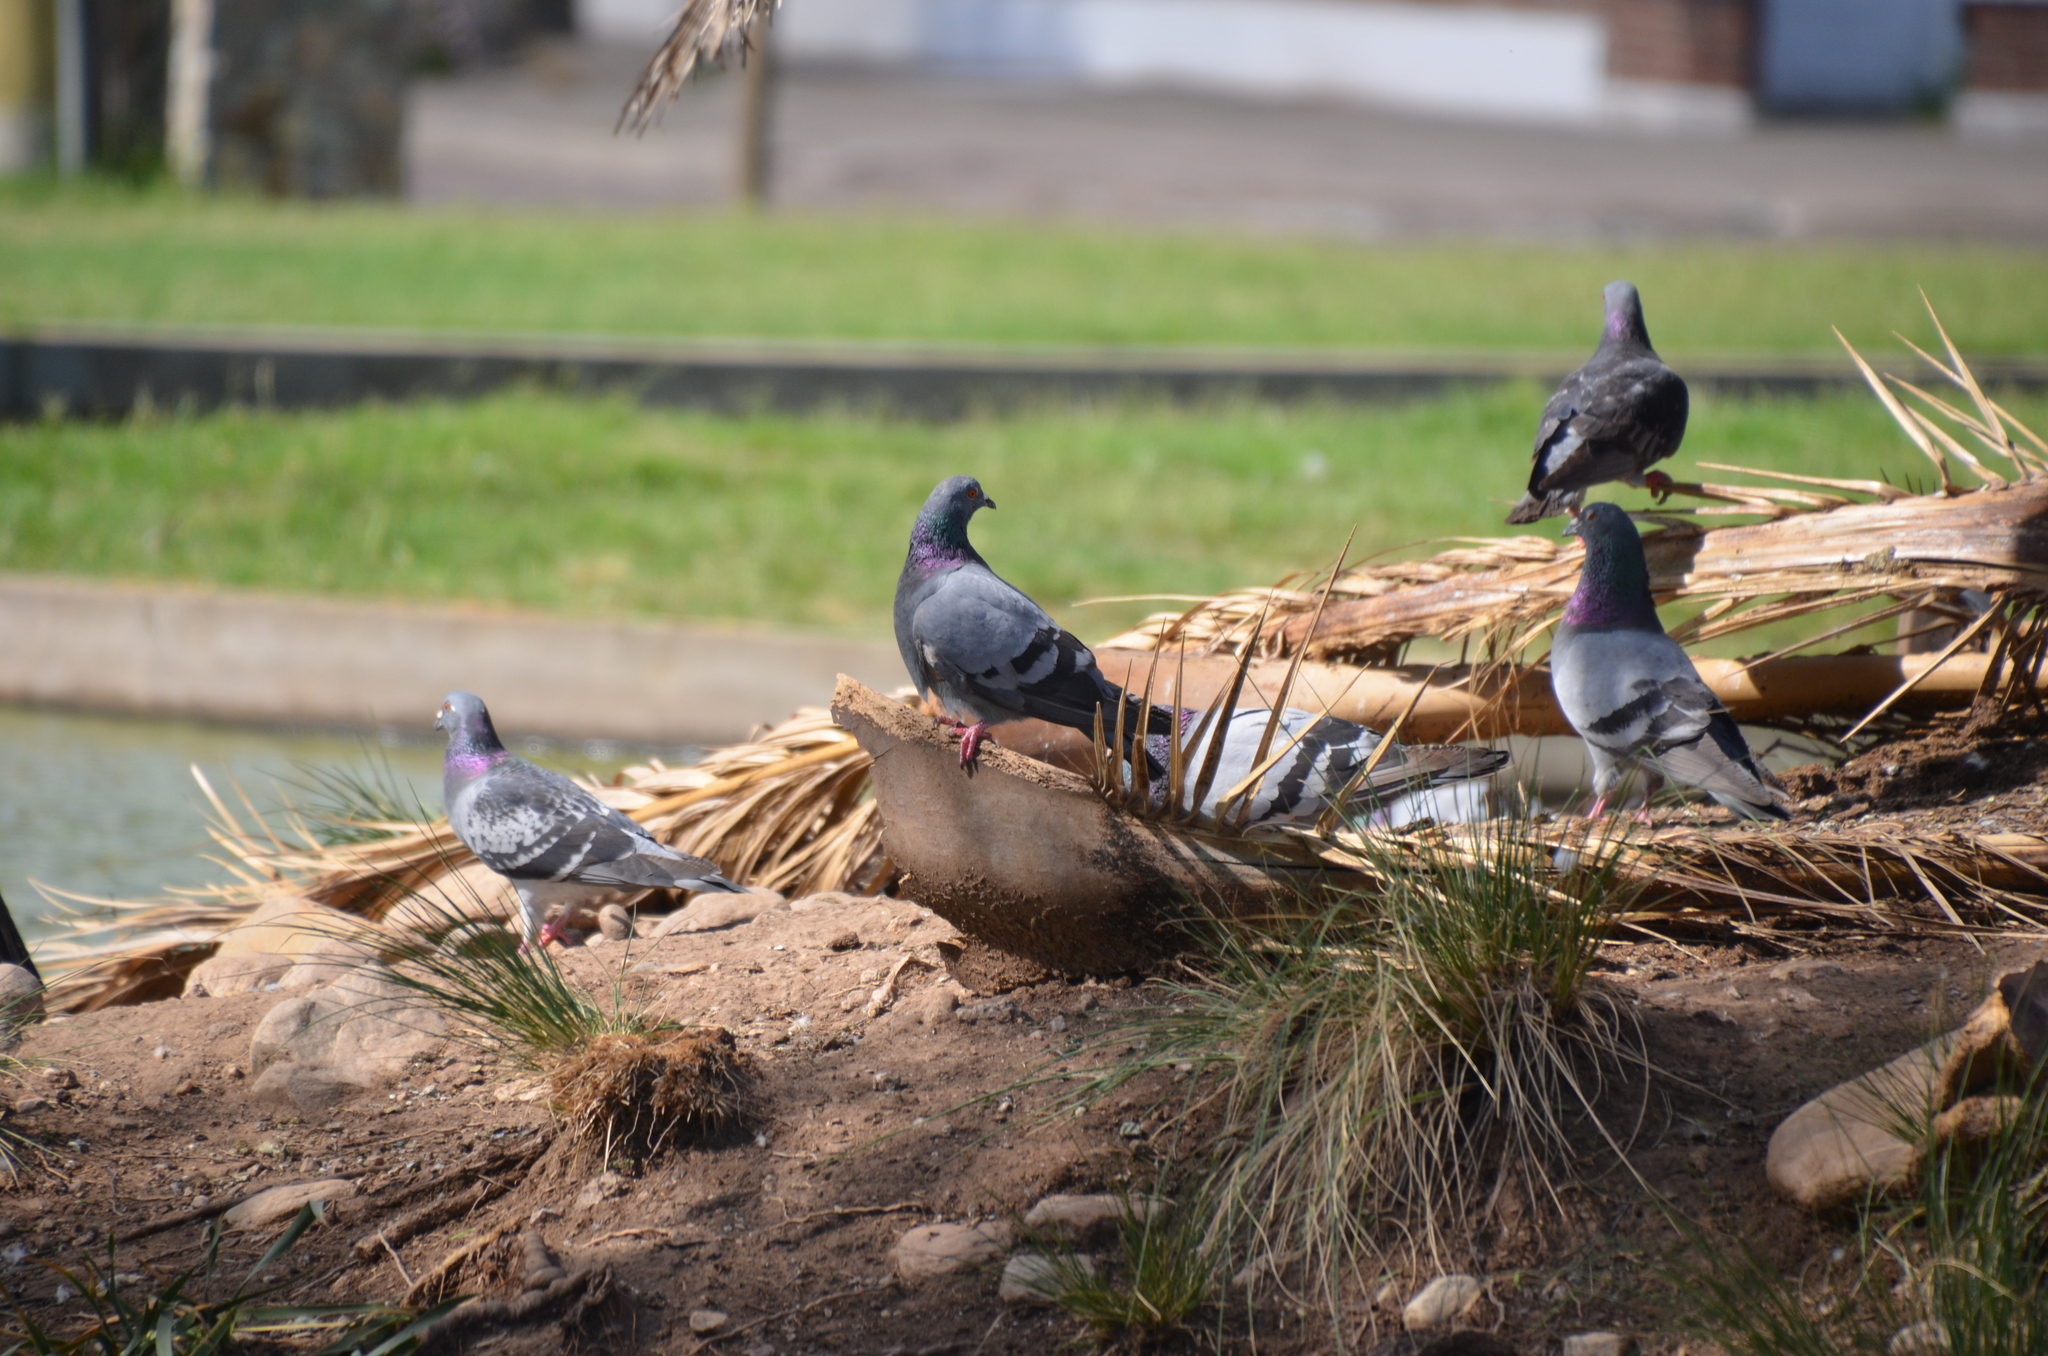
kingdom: Animalia
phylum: Chordata
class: Aves
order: Columbiformes
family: Columbidae
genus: Columba
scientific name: Columba livia
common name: Rock pigeon
